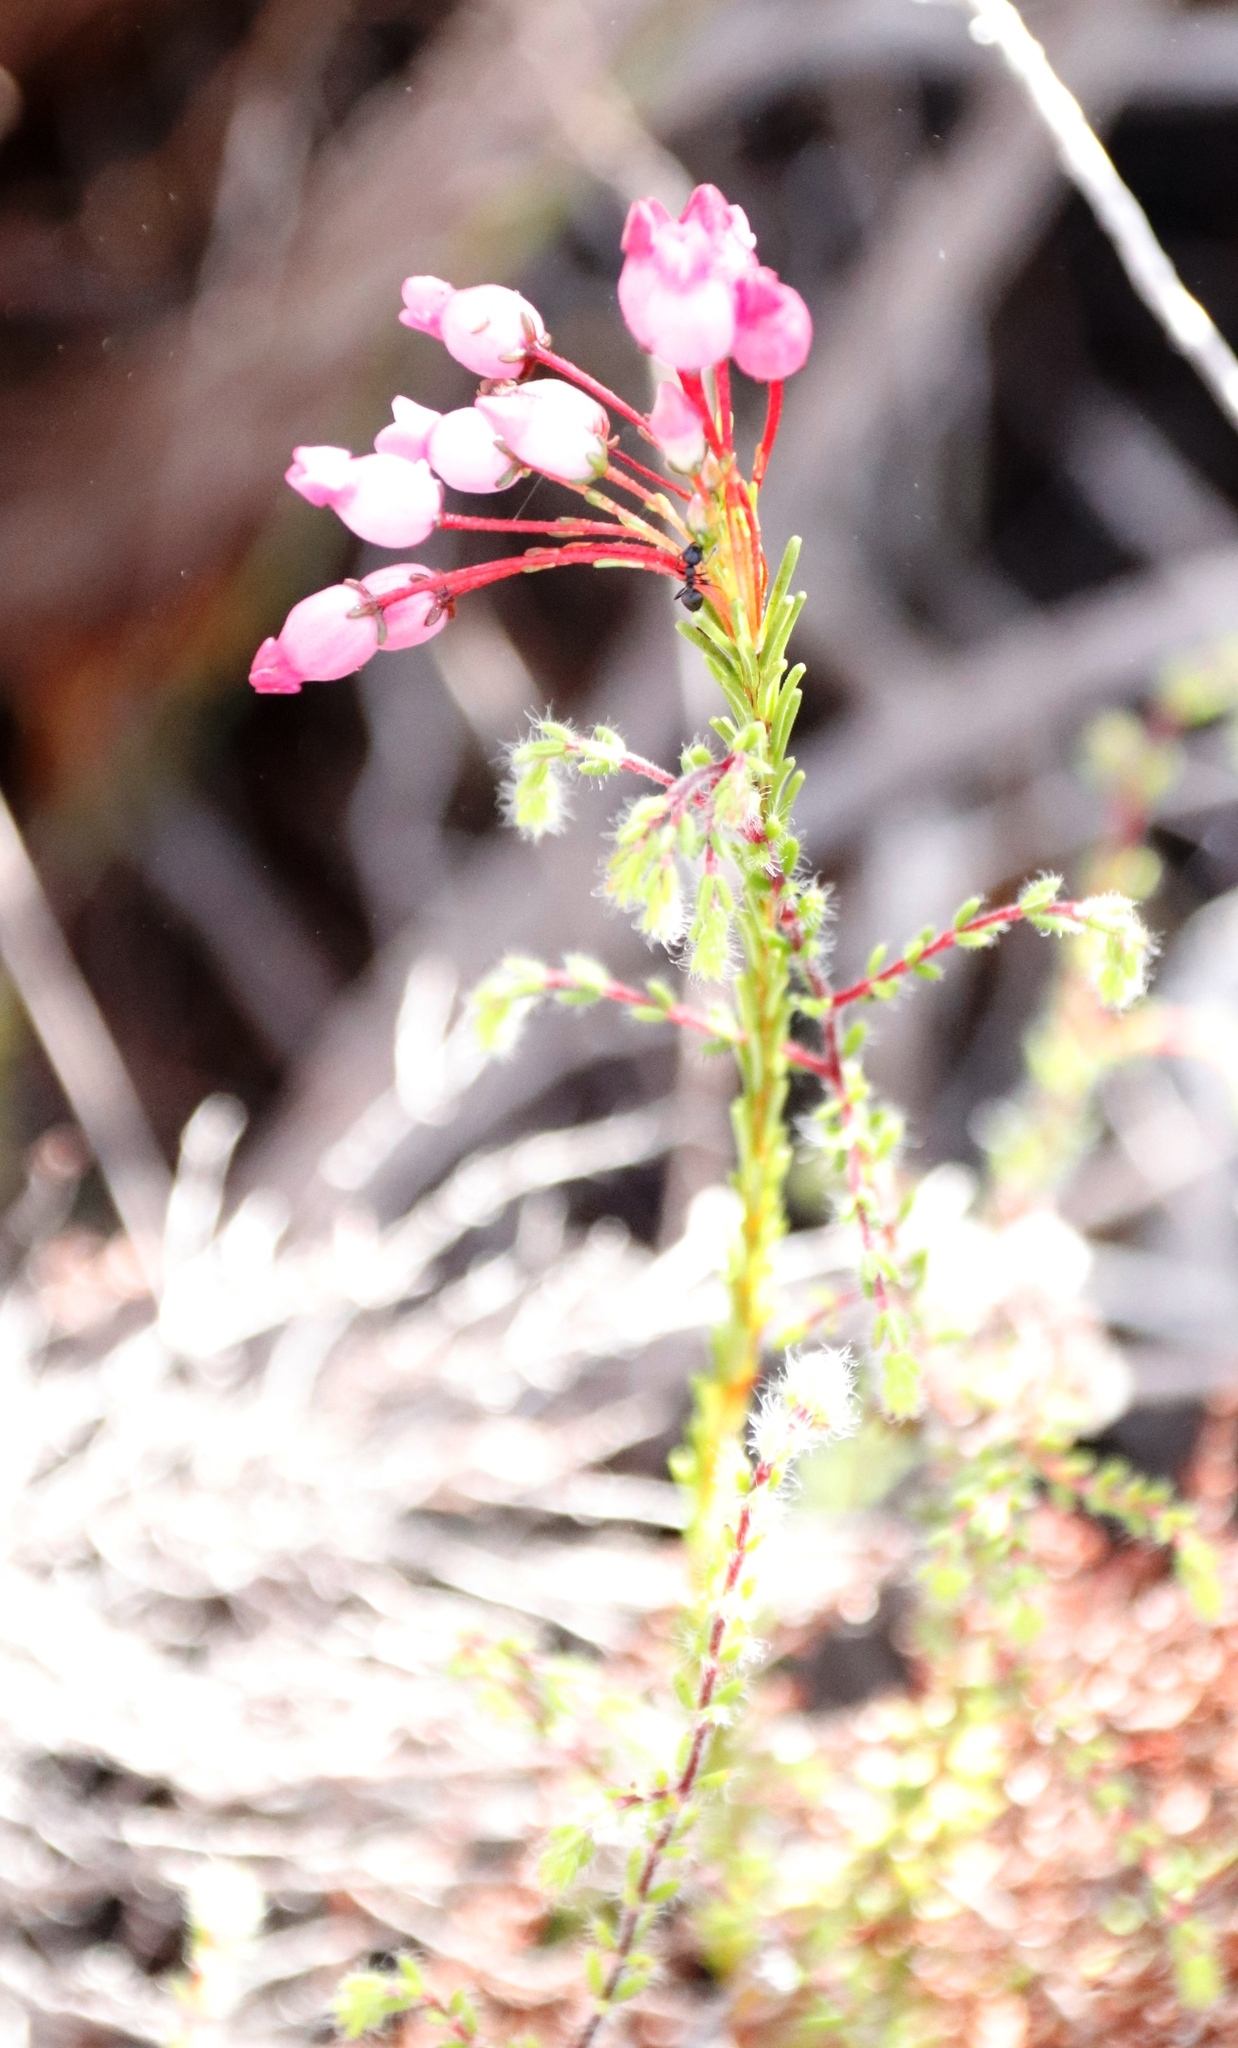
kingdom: Plantae
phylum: Tracheophyta
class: Magnoliopsida
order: Ericales
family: Ericaceae
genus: Erica
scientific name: Erica obliqua
